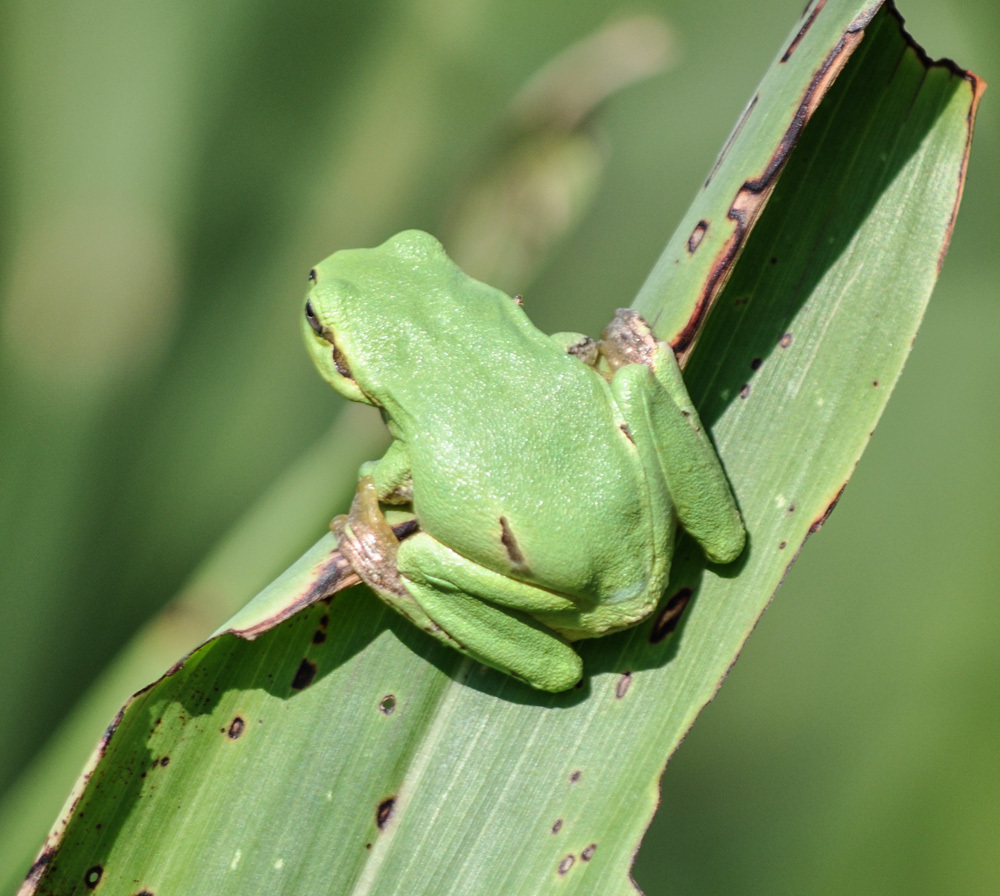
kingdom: Animalia
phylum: Chordata
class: Amphibia
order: Anura
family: Hylidae
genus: Hyla
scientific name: Hyla intermedia
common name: Italian tree frog
